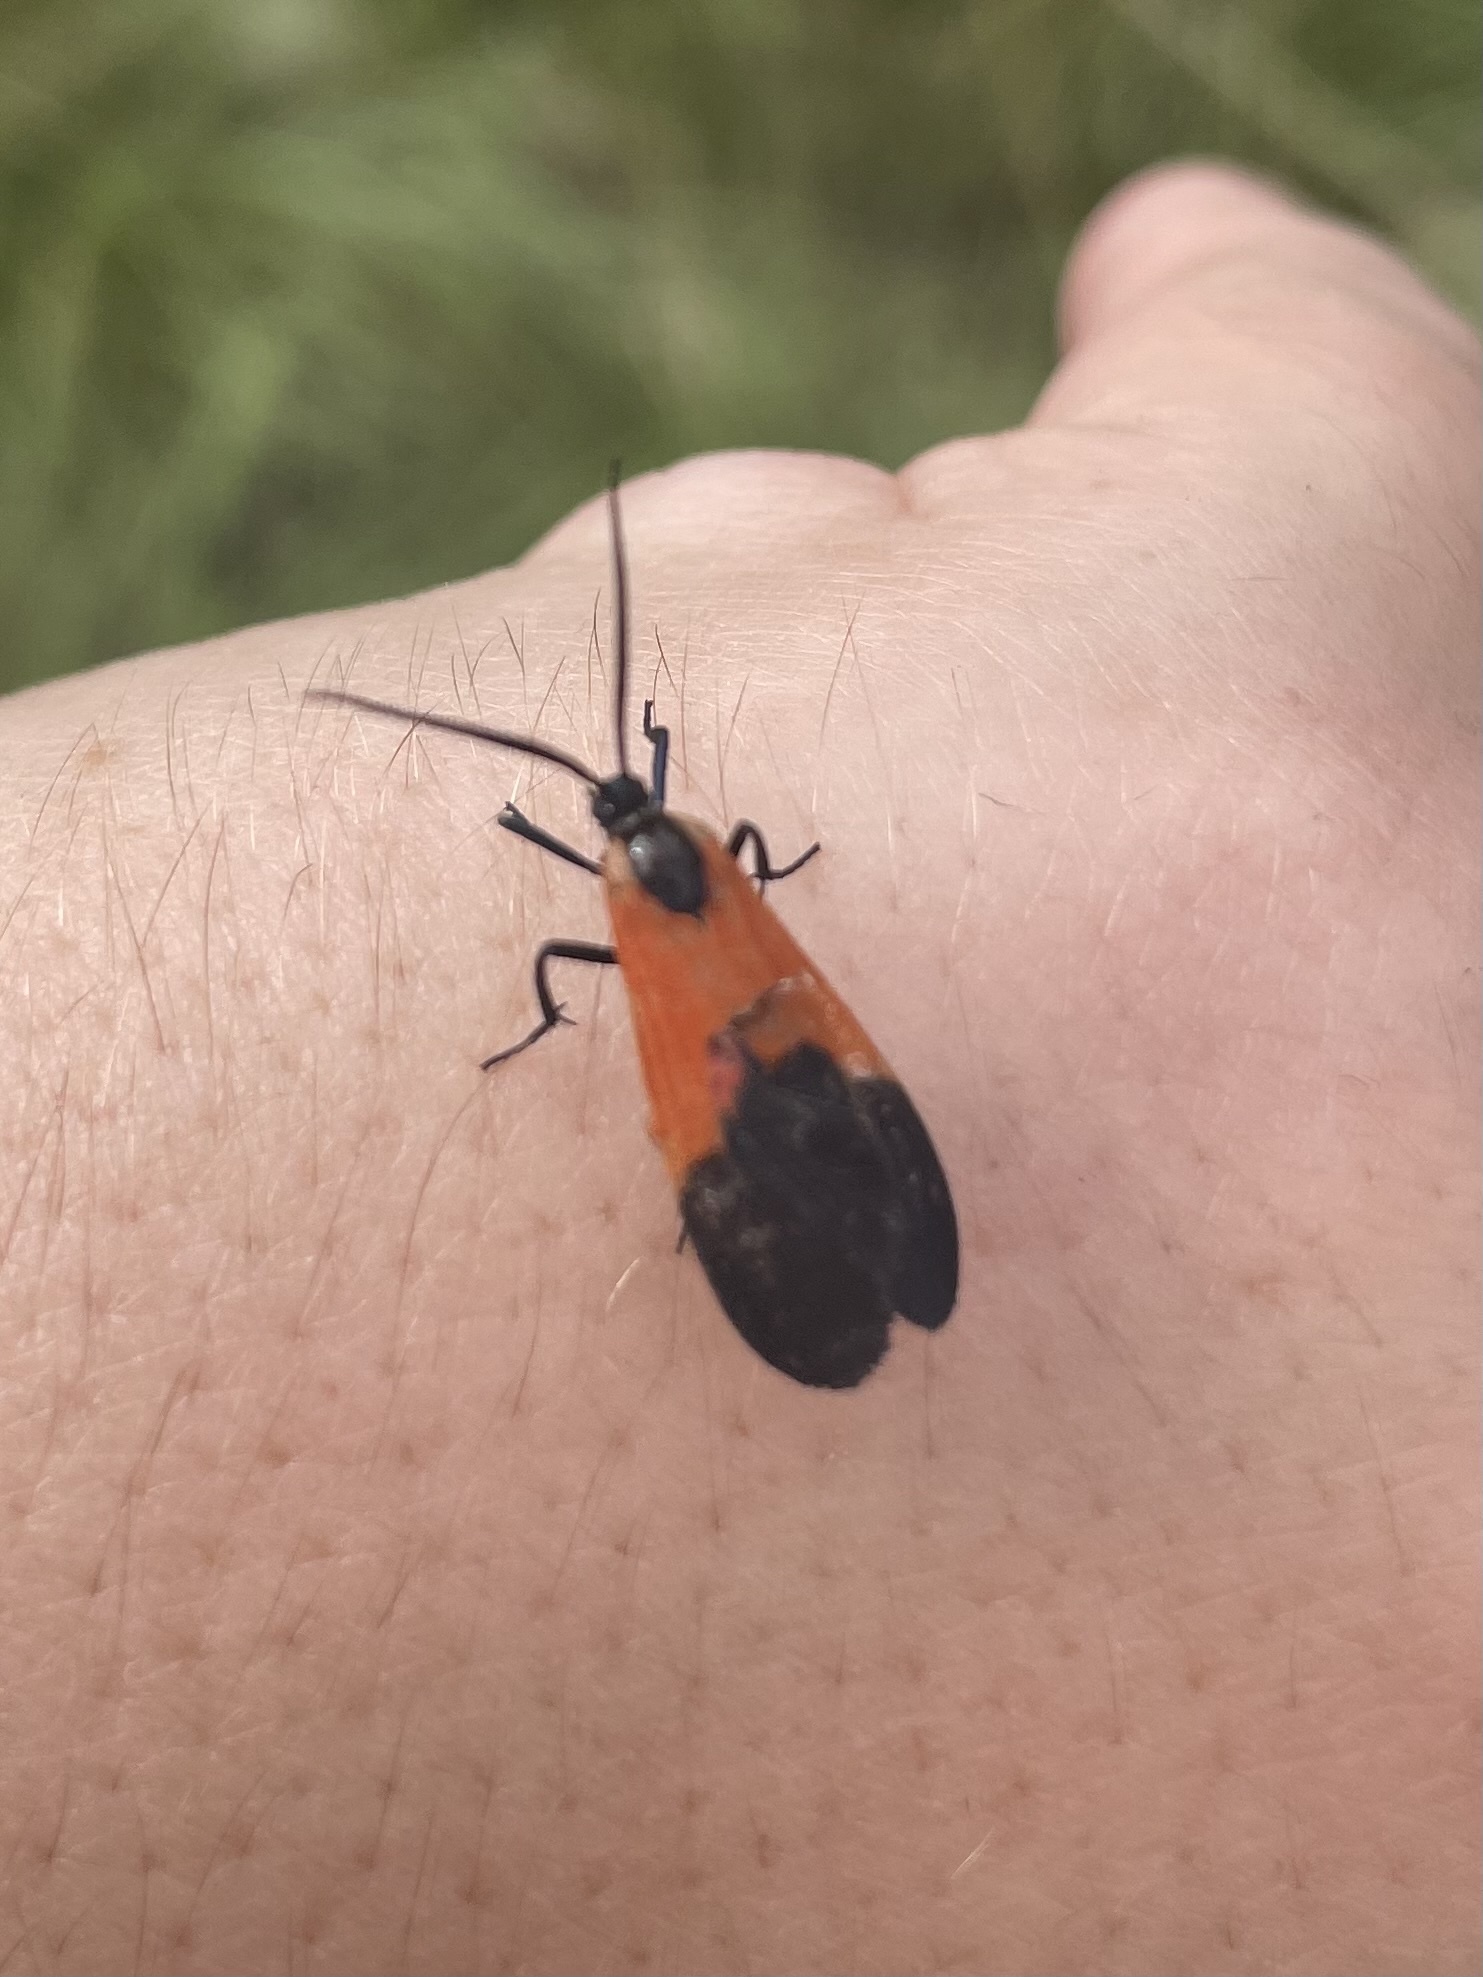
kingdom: Animalia
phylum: Arthropoda
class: Insecta
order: Lepidoptera
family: Erebidae
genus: Lycomorpha
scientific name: Lycomorpha pholus
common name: Black-and-yellow lichen moth
